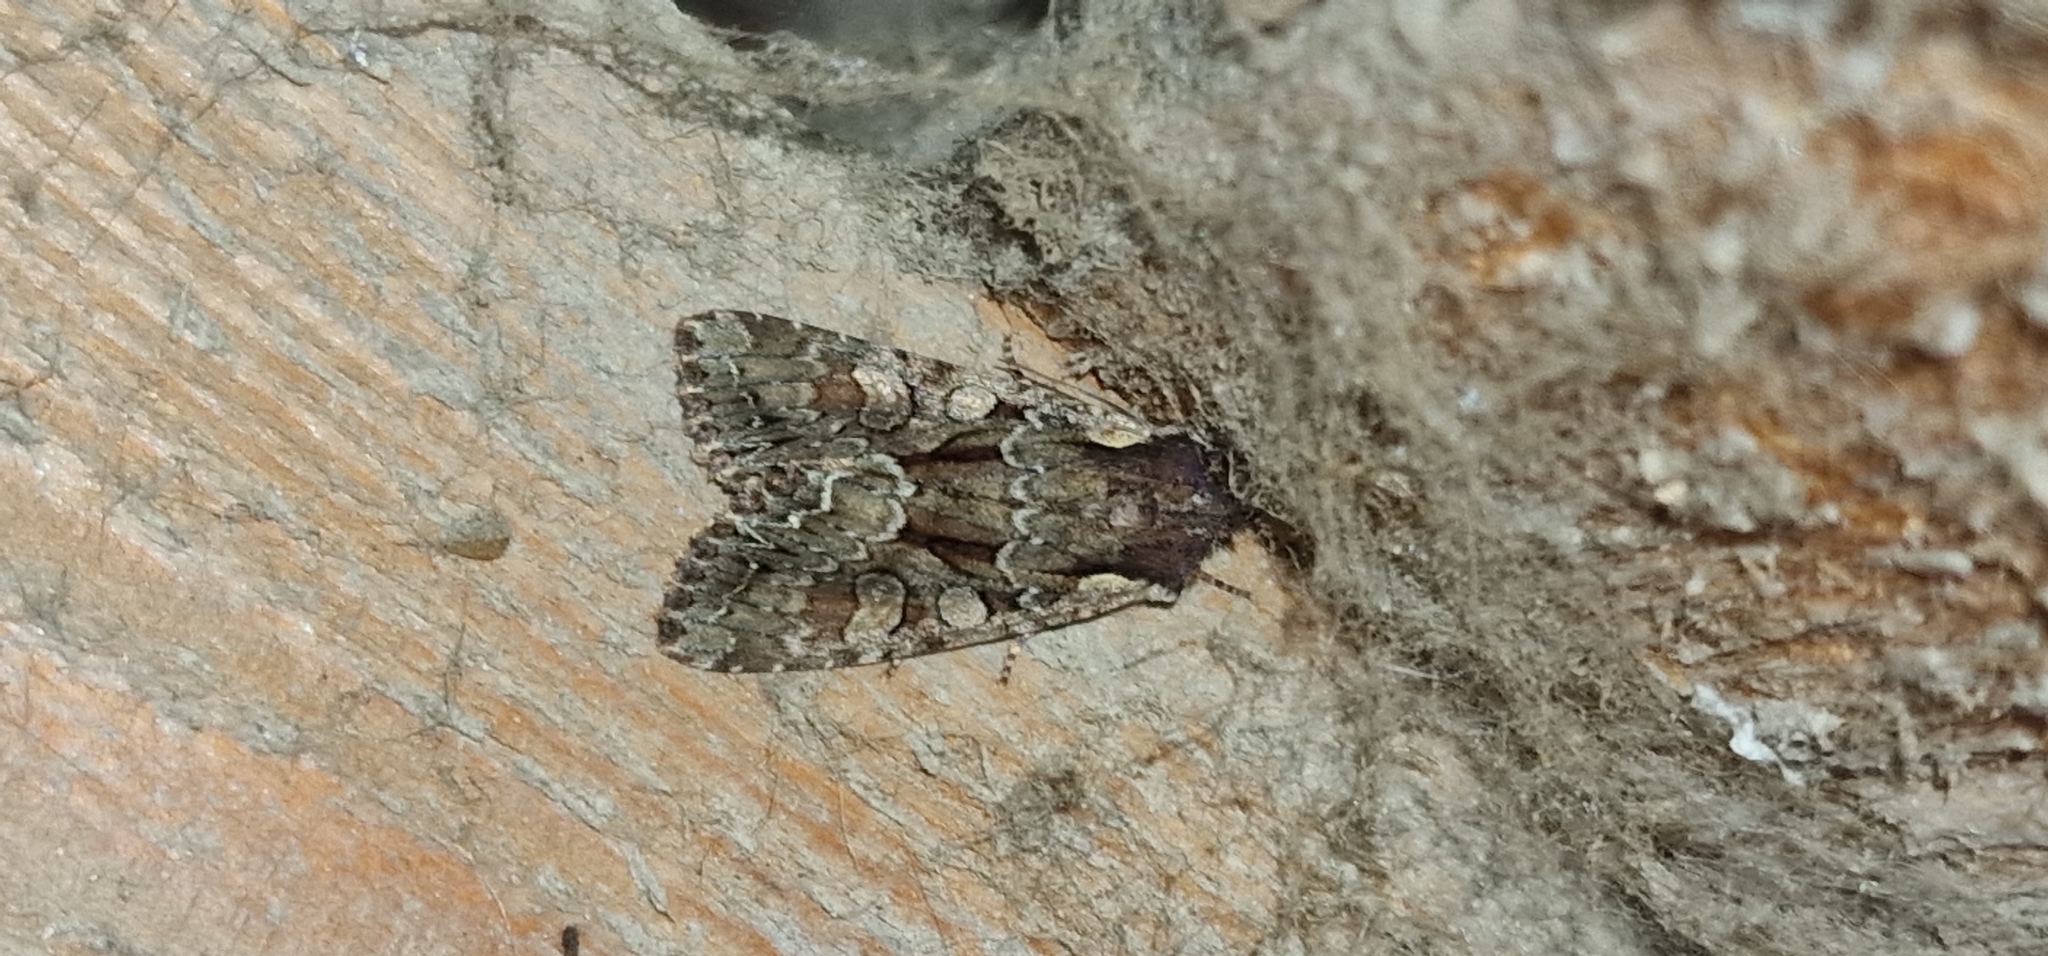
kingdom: Animalia
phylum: Arthropoda
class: Insecta
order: Lepidoptera
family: Noctuidae
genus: Lacanobia
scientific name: Lacanobia thalassina
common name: Pale-shouldered brocade
